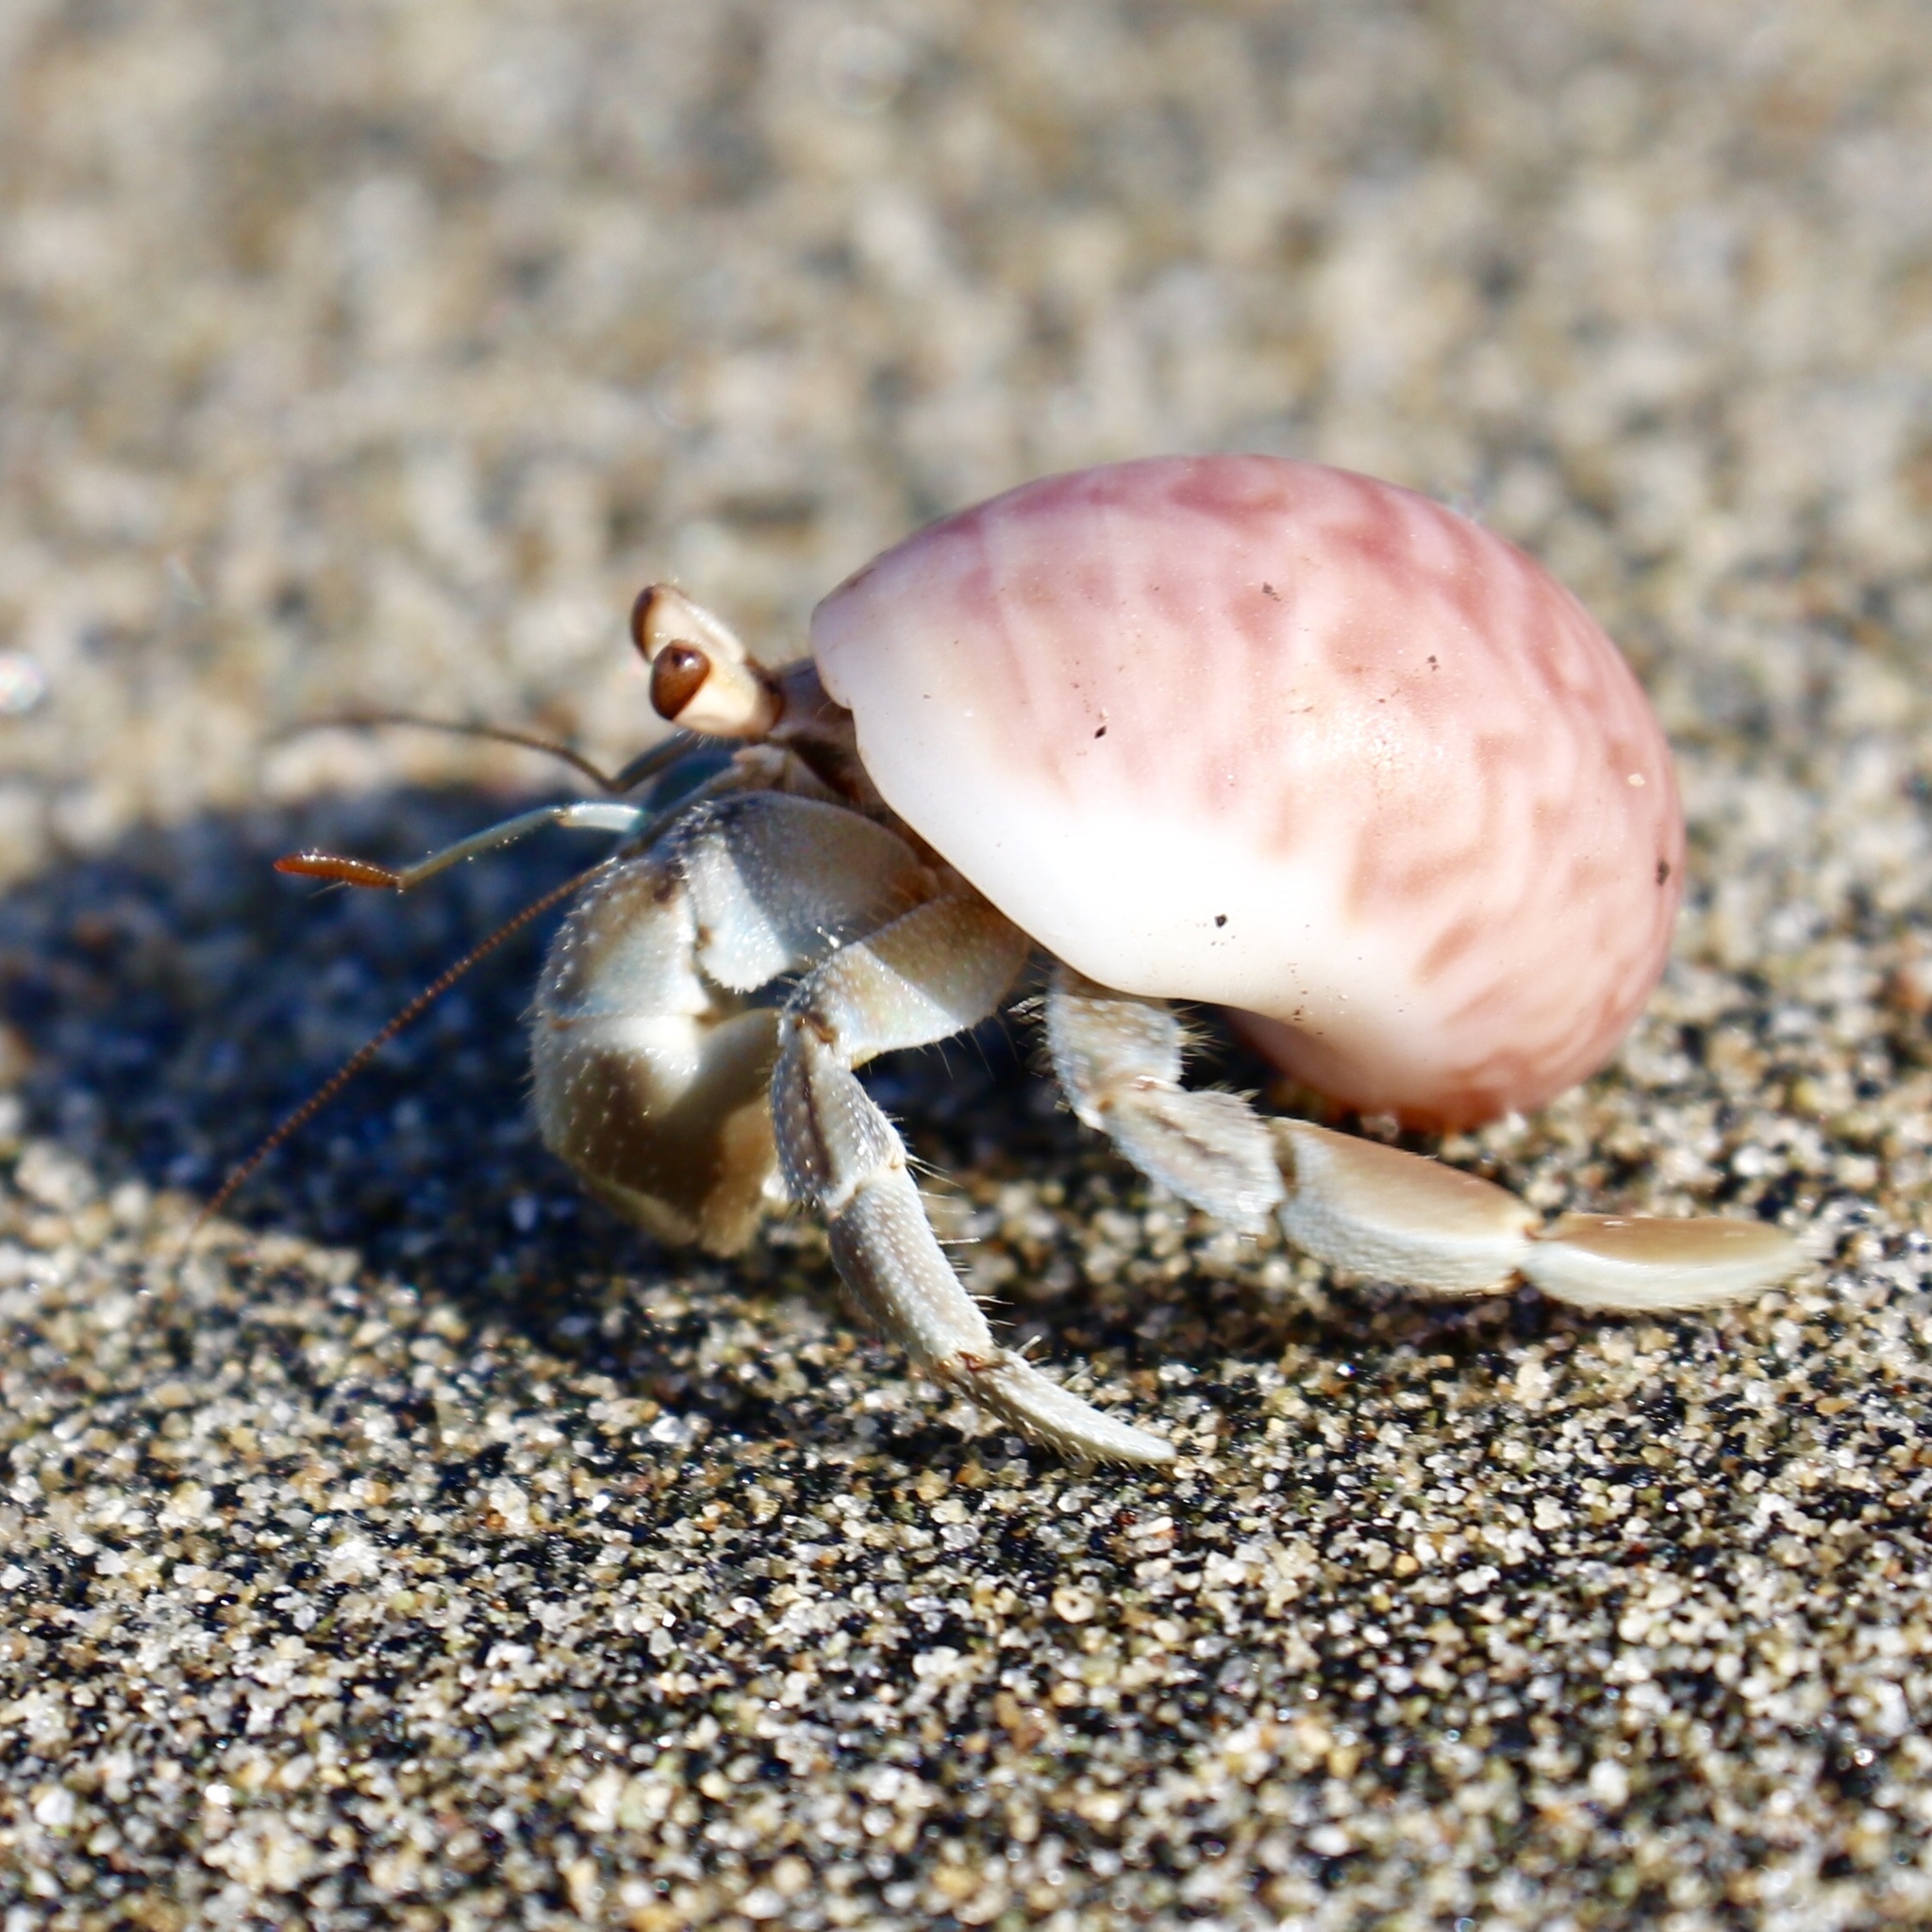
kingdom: Animalia
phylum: Arthropoda
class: Malacostraca
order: Decapoda
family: Coenobitidae
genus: Coenobita
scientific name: Coenobita compressus
